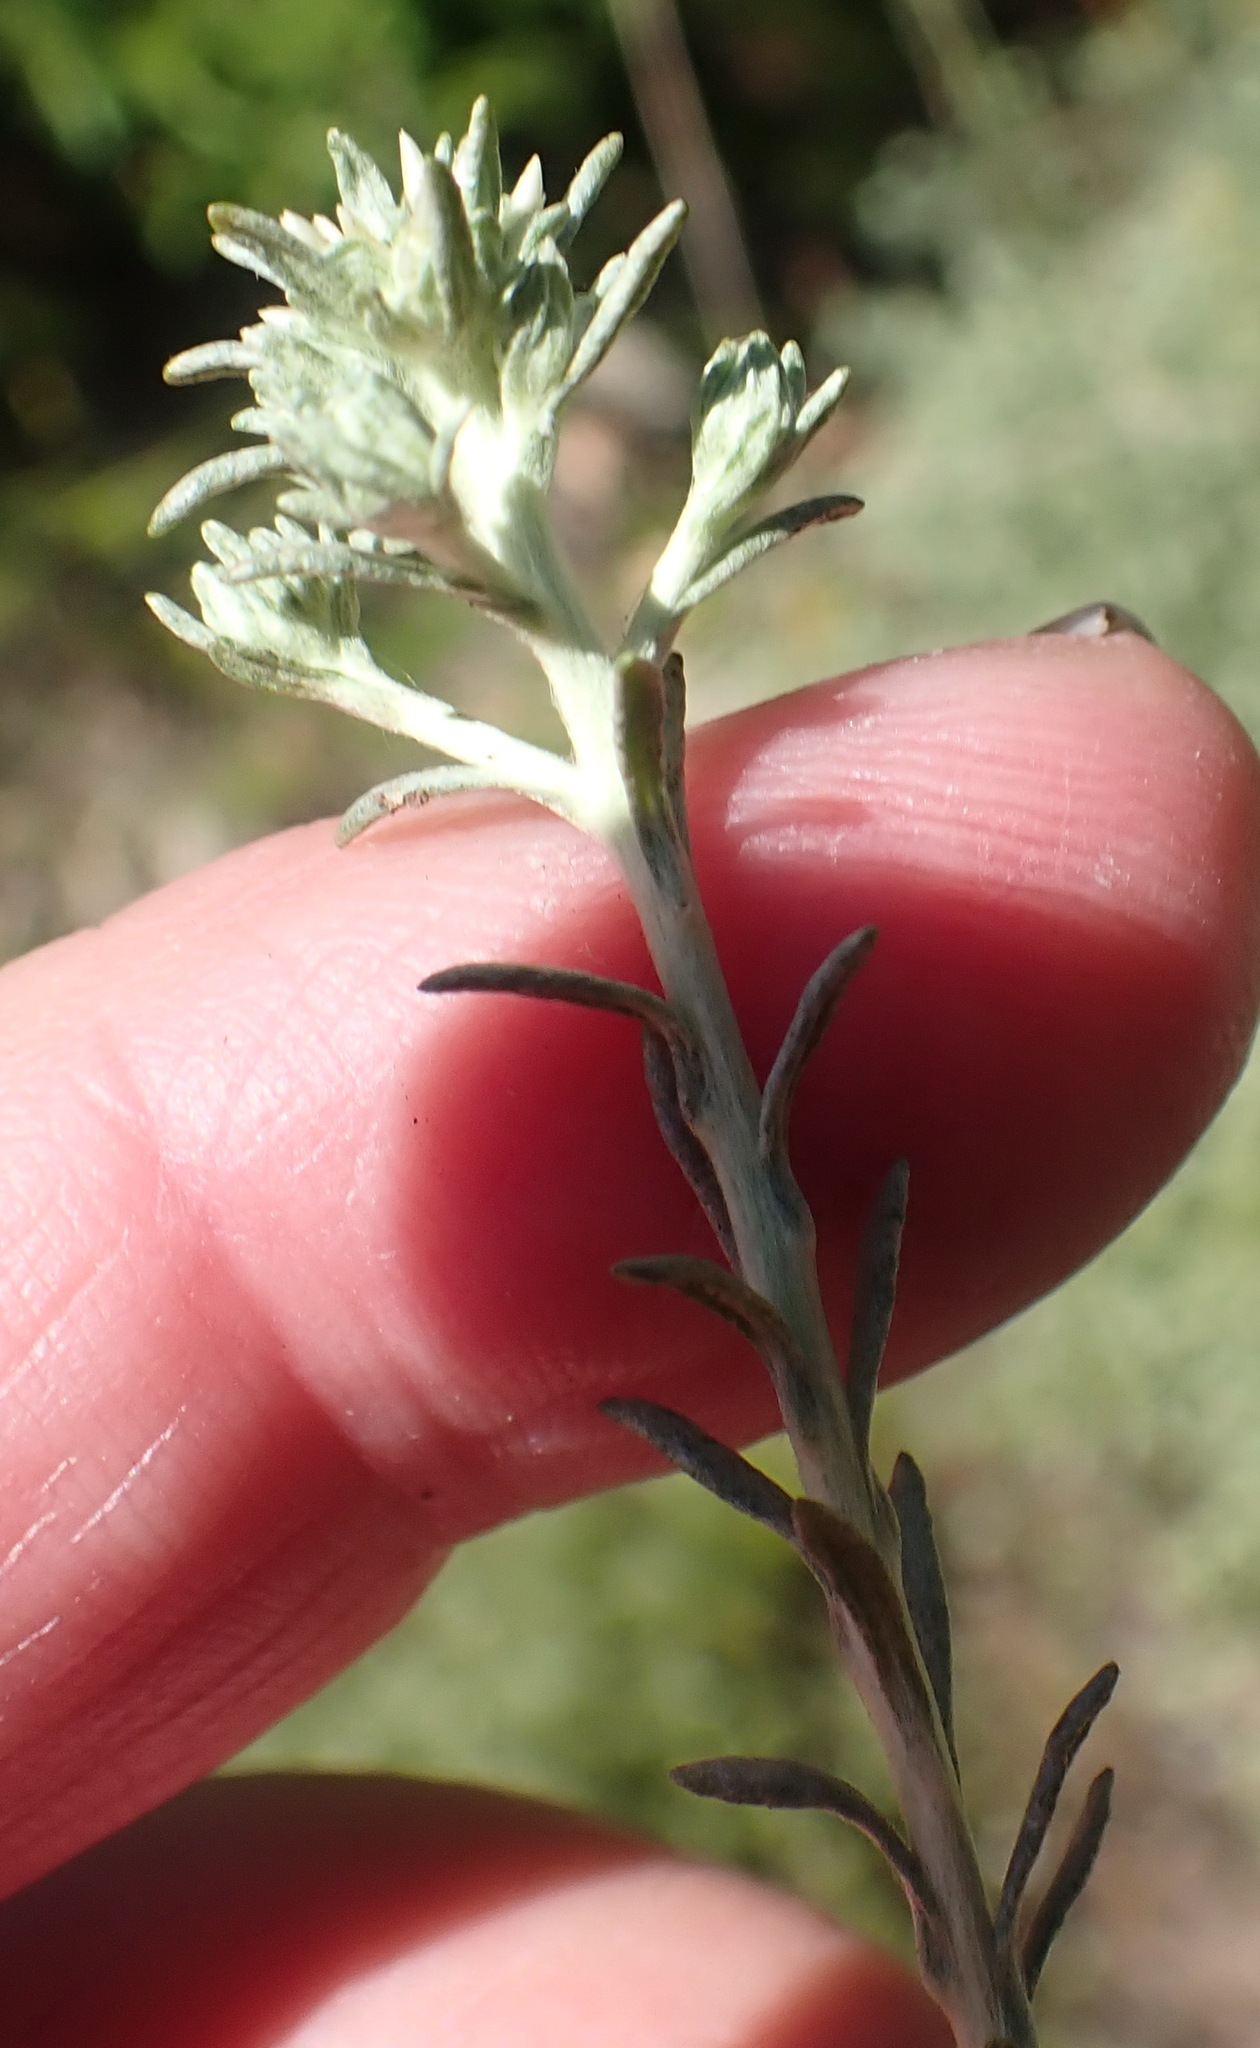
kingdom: Plantae
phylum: Tracheophyta
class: Magnoliopsida
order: Asterales
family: Asteraceae
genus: Helichrysum
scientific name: Helichrysum niveum
